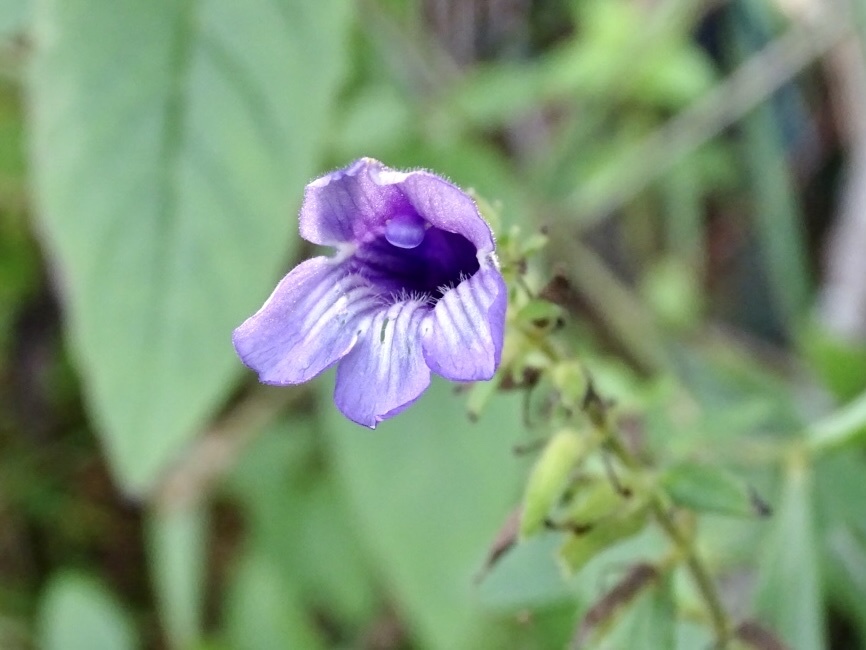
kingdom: Plantae
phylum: Tracheophyta
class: Magnoliopsida
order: Lamiales
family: Plantaginaceae
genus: Adenosma
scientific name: Adenosma glutinosa
